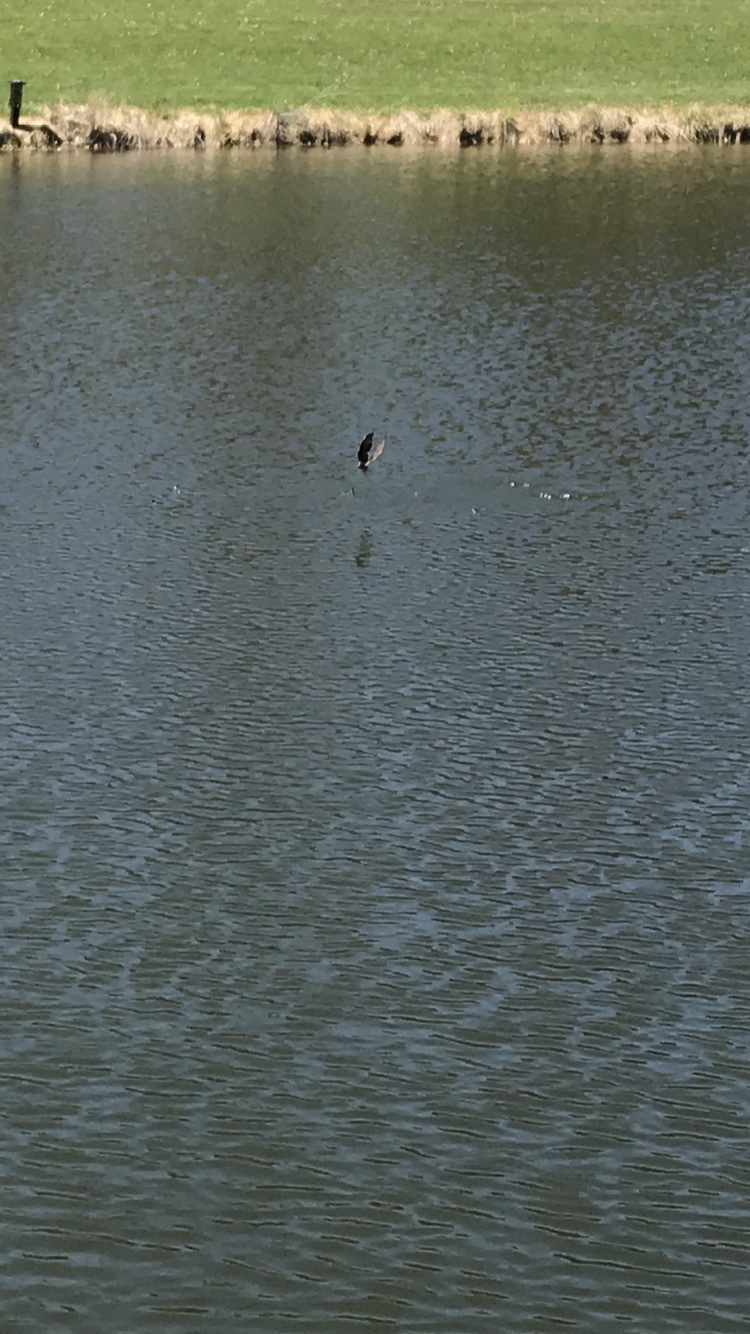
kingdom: Animalia
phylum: Chordata
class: Aves
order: Passeriformes
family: Hirundinidae
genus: Stelgidopteryx
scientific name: Stelgidopteryx serripennis
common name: Northern rough-winged swallow
